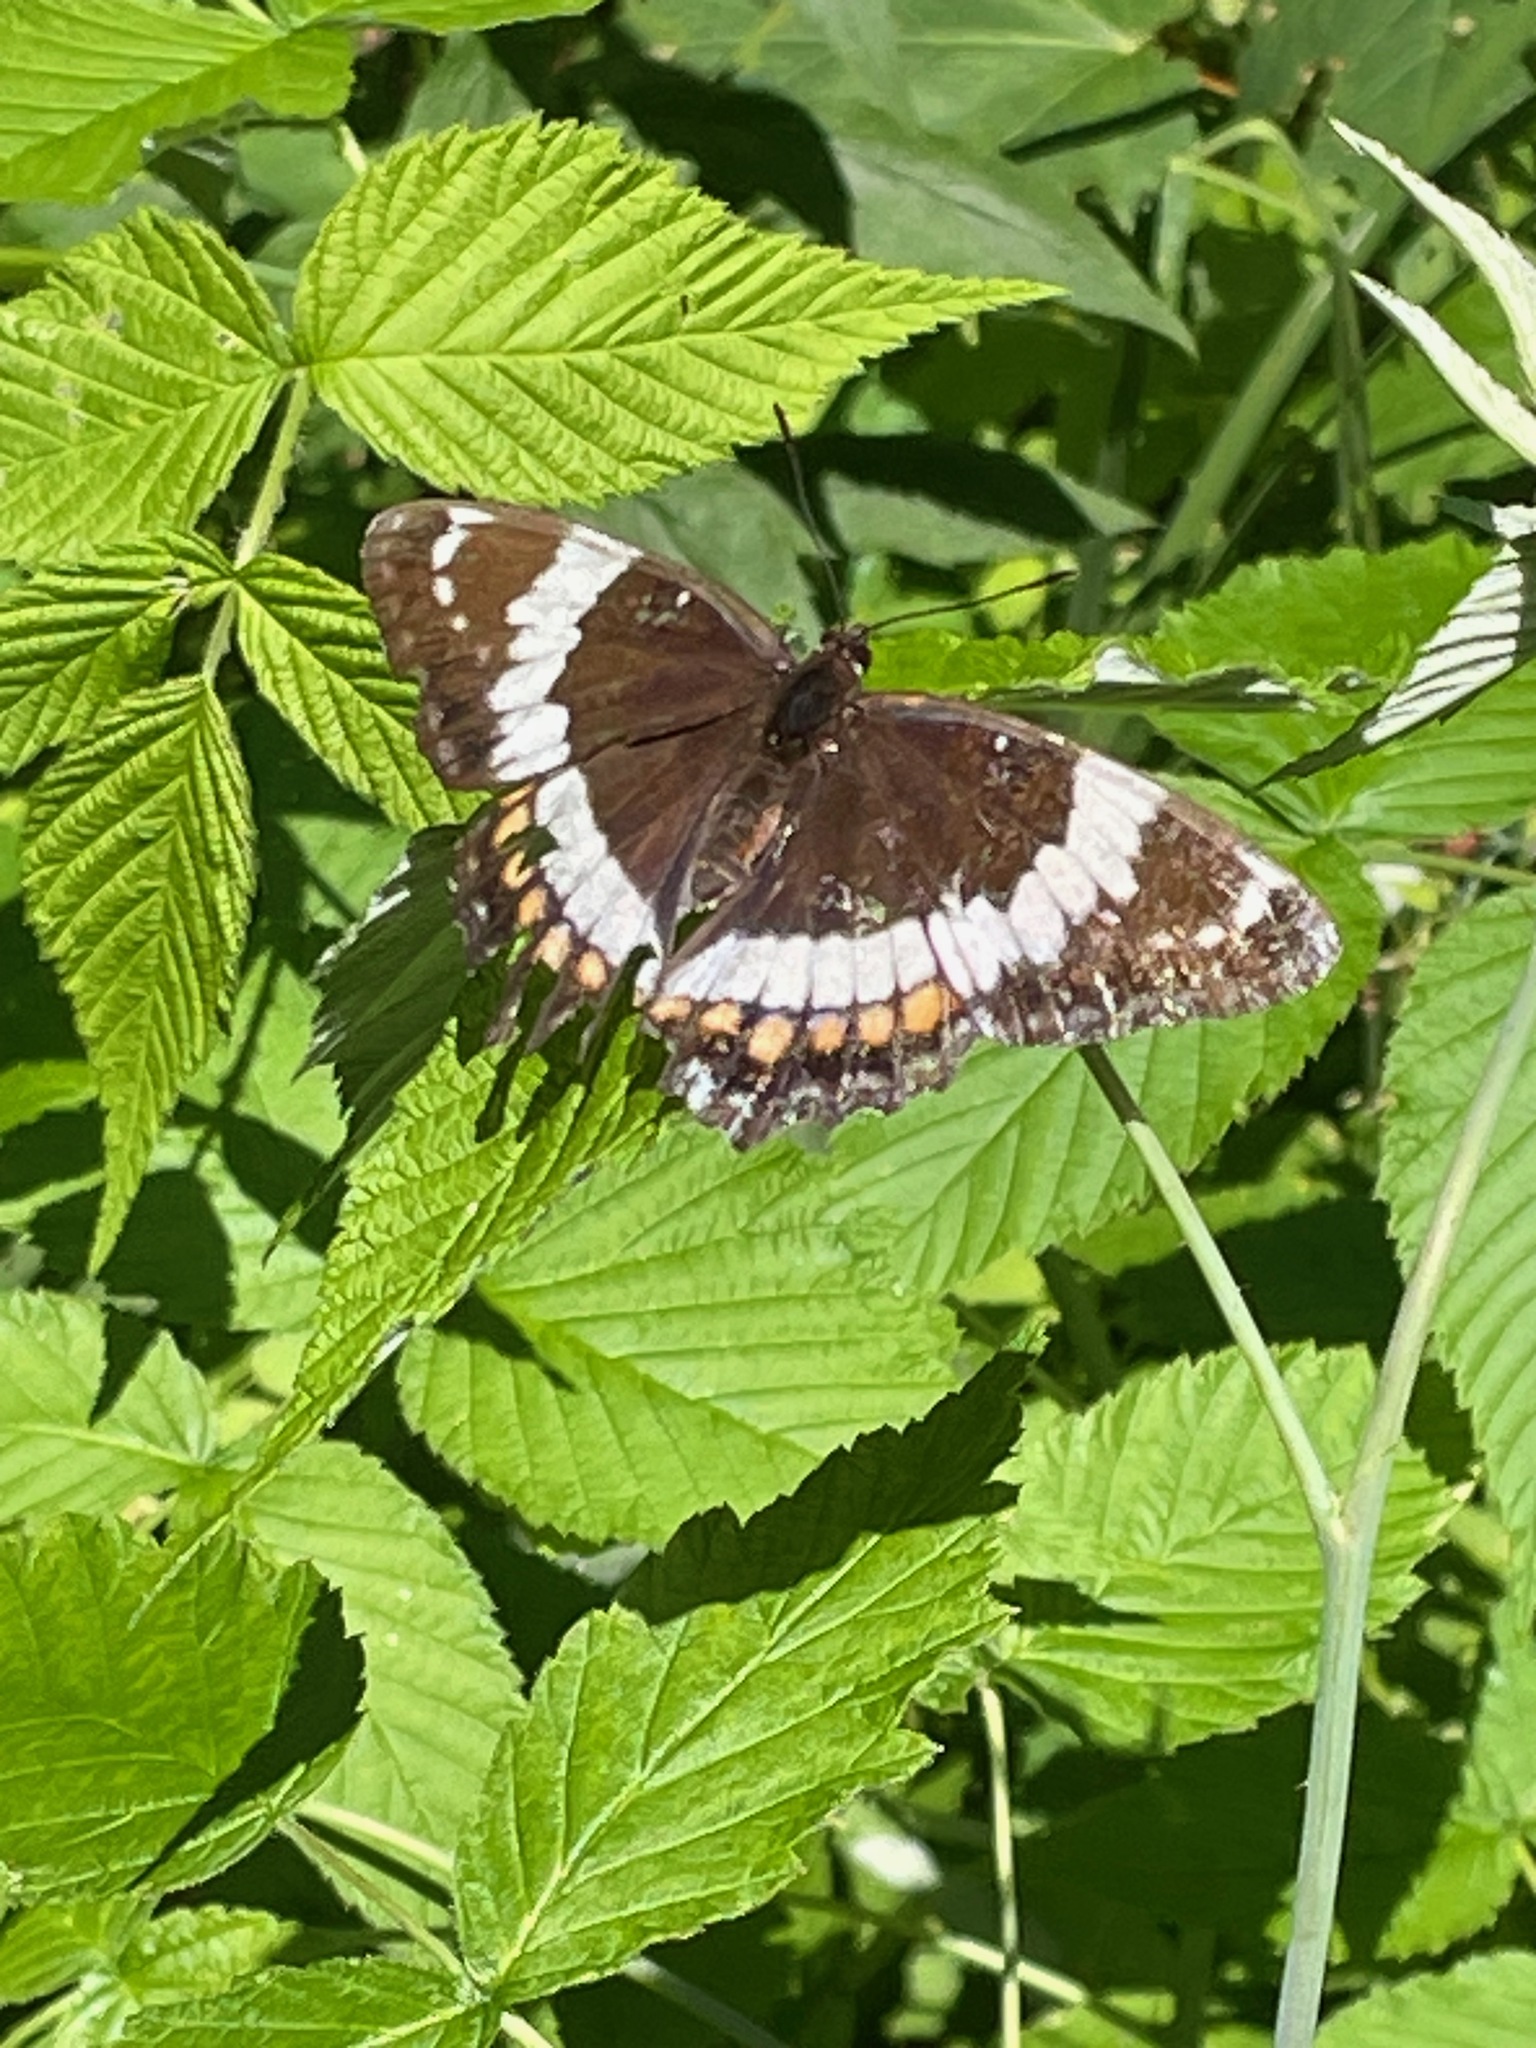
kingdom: Animalia
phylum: Arthropoda
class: Insecta
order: Lepidoptera
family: Nymphalidae
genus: Limenitis
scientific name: Limenitis arthemis
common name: Red-spotted admiral
